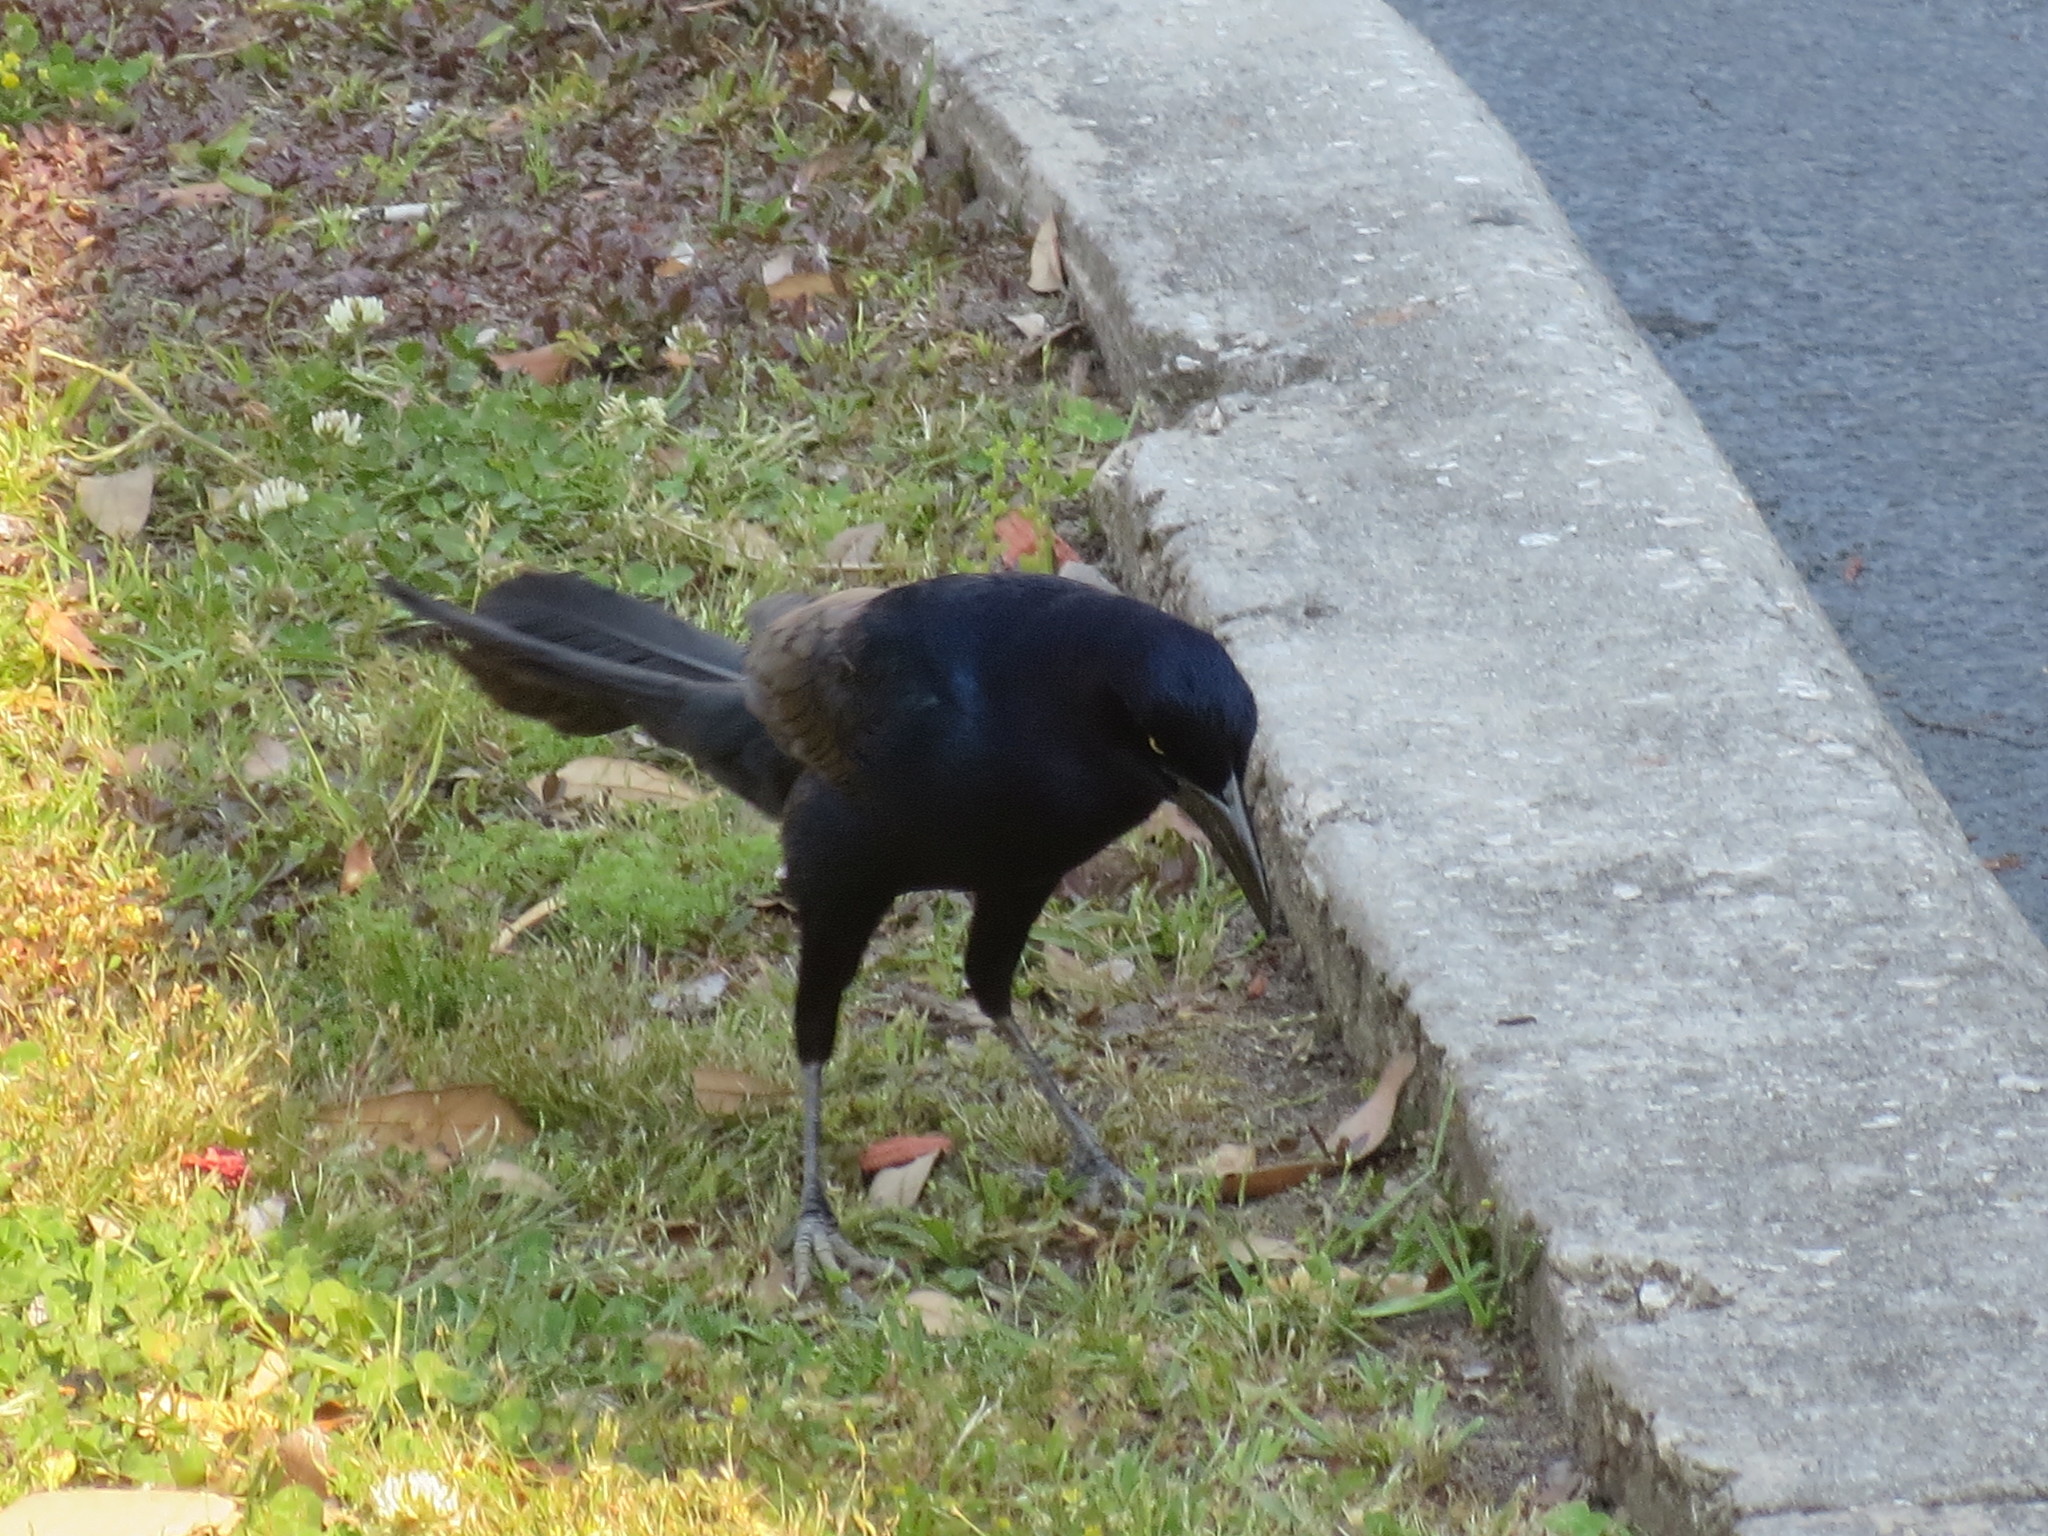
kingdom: Animalia
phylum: Chordata
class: Aves
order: Passeriformes
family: Icteridae
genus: Quiscalus
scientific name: Quiscalus major
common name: Boat-tailed grackle
